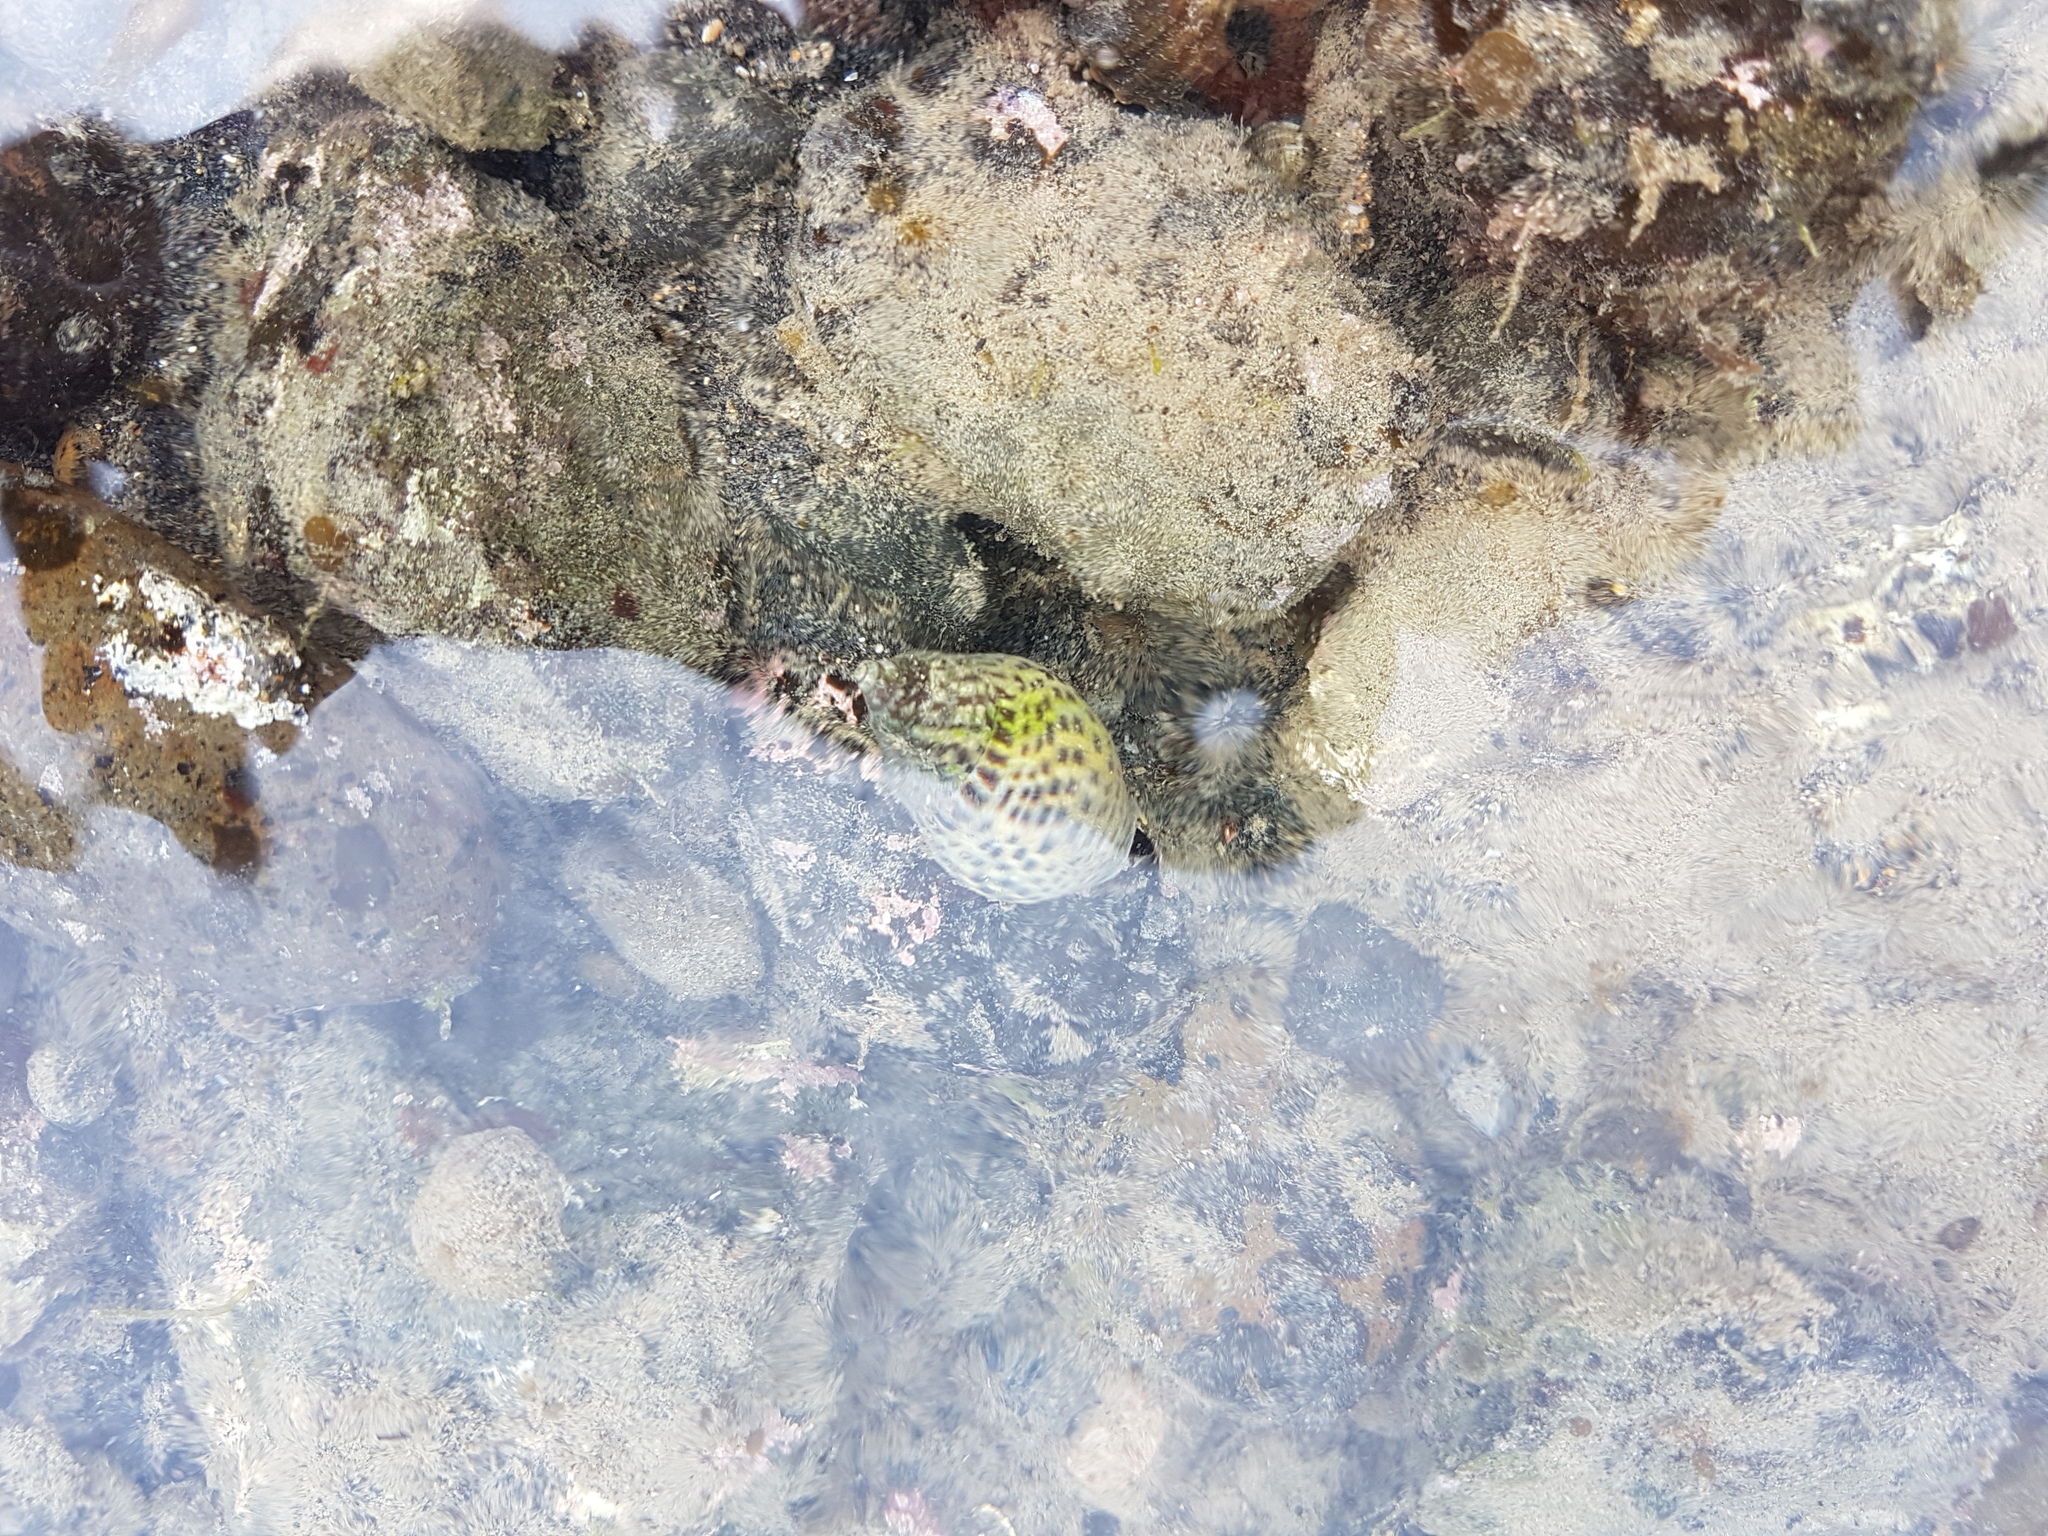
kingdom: Animalia
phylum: Mollusca
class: Gastropoda
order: Neogastropoda
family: Cominellidae
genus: Cominella
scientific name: Cominella maculosa
